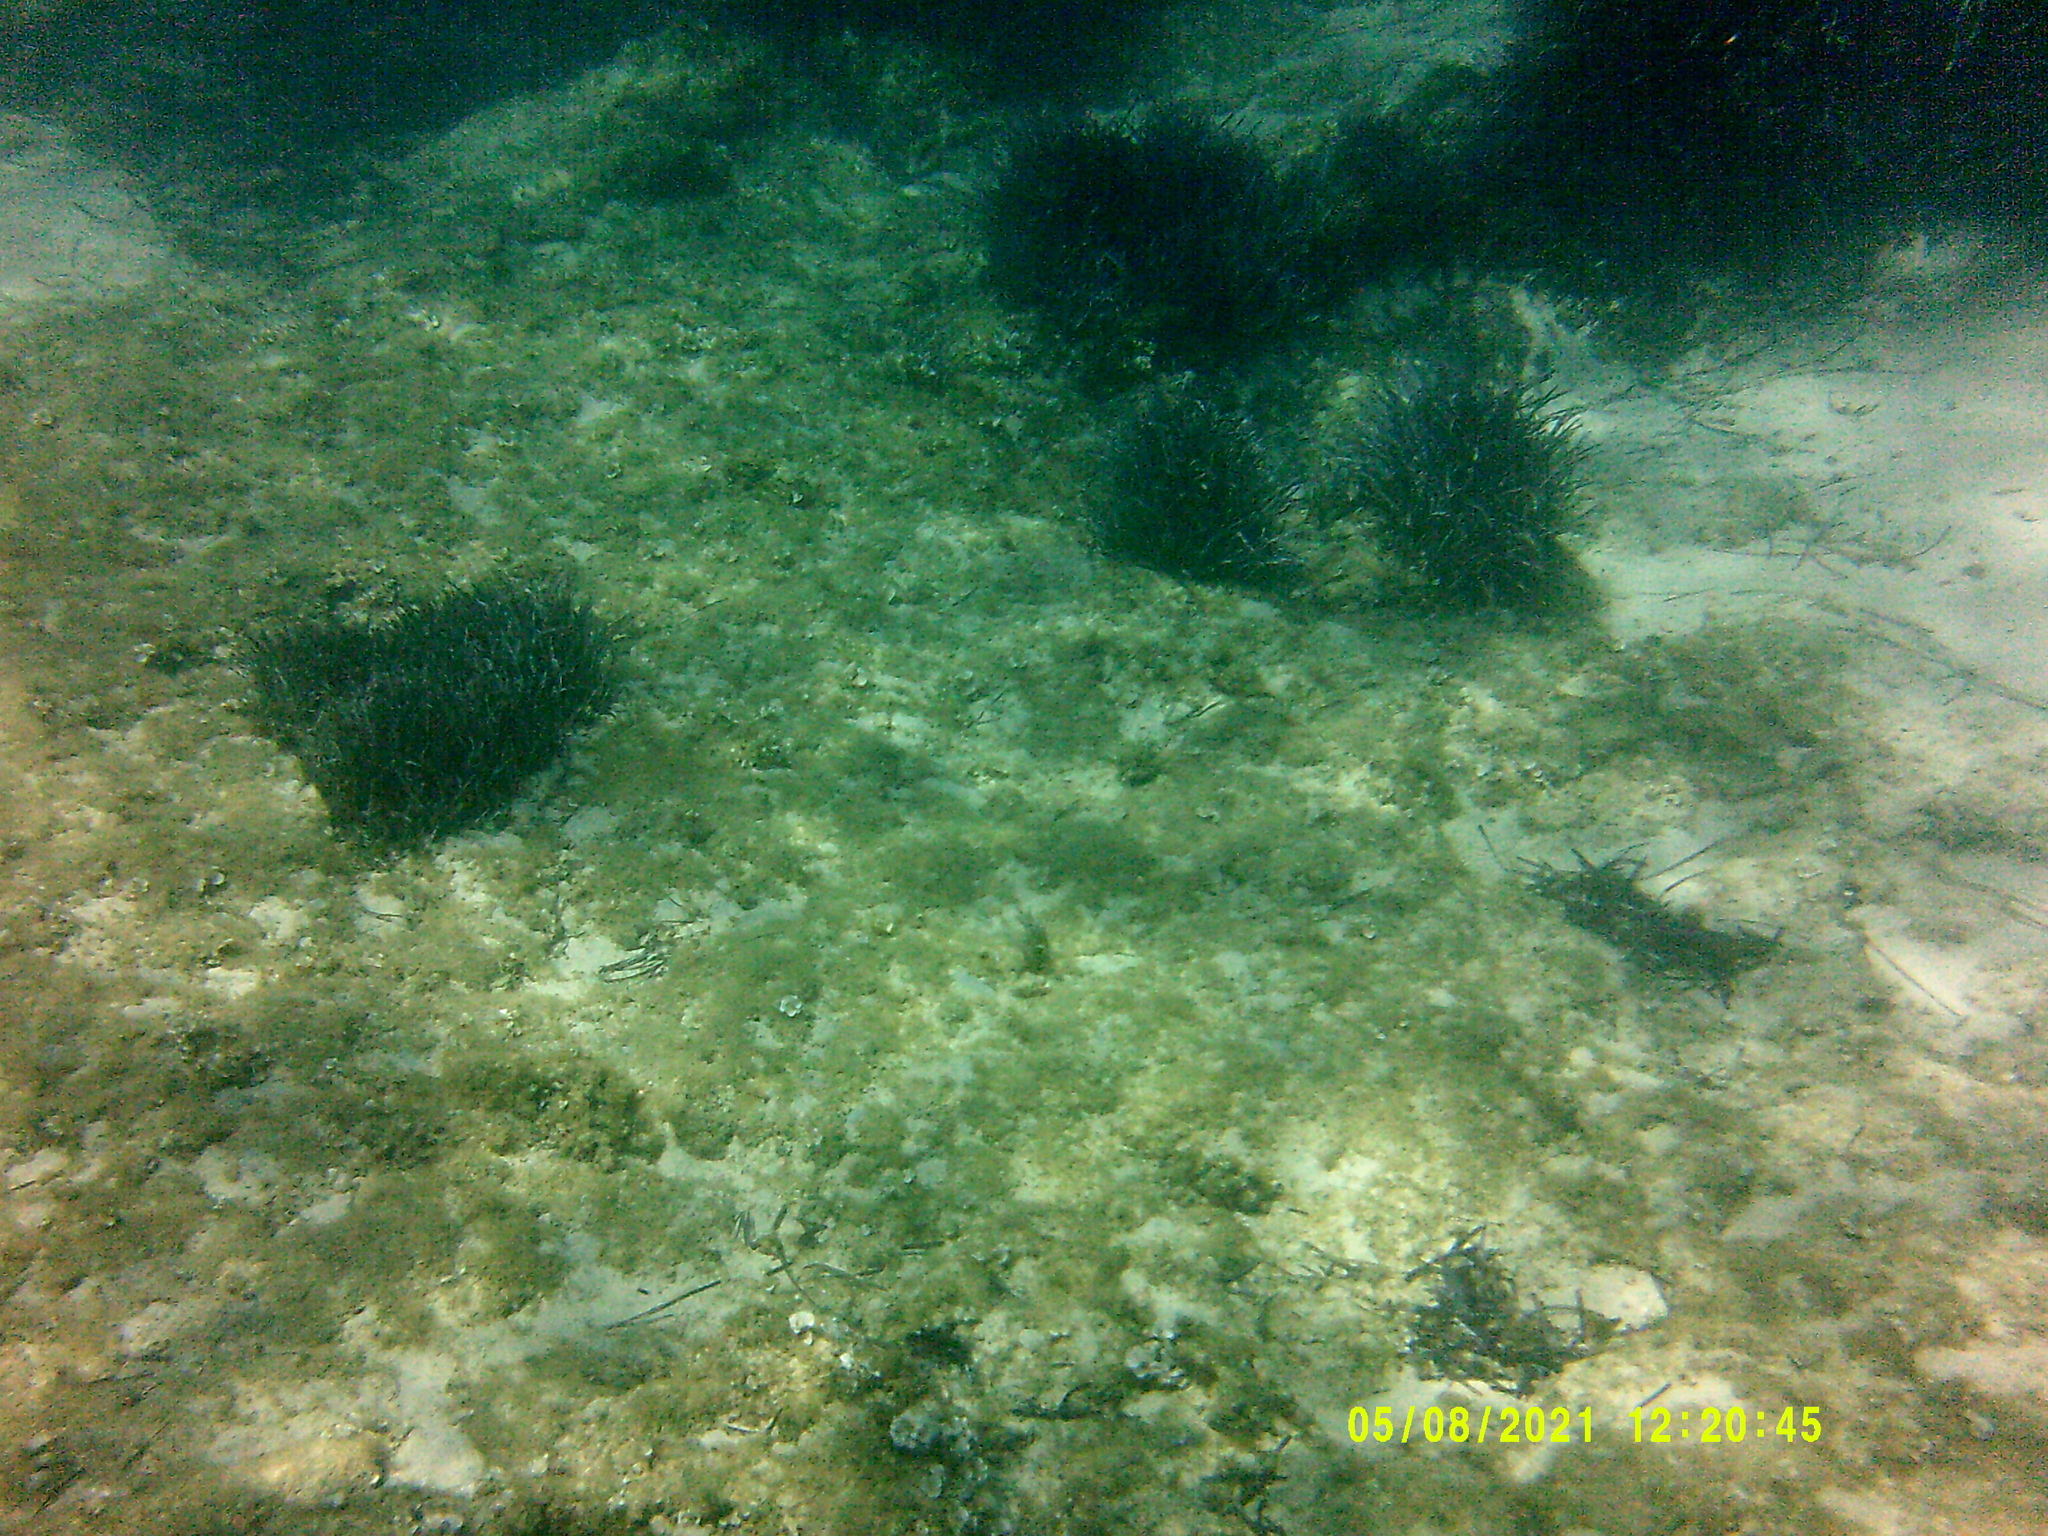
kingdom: Plantae
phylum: Tracheophyta
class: Liliopsida
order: Alismatales
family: Posidoniaceae
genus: Posidonia
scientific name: Posidonia oceanica
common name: Mediterranean tapeweed
